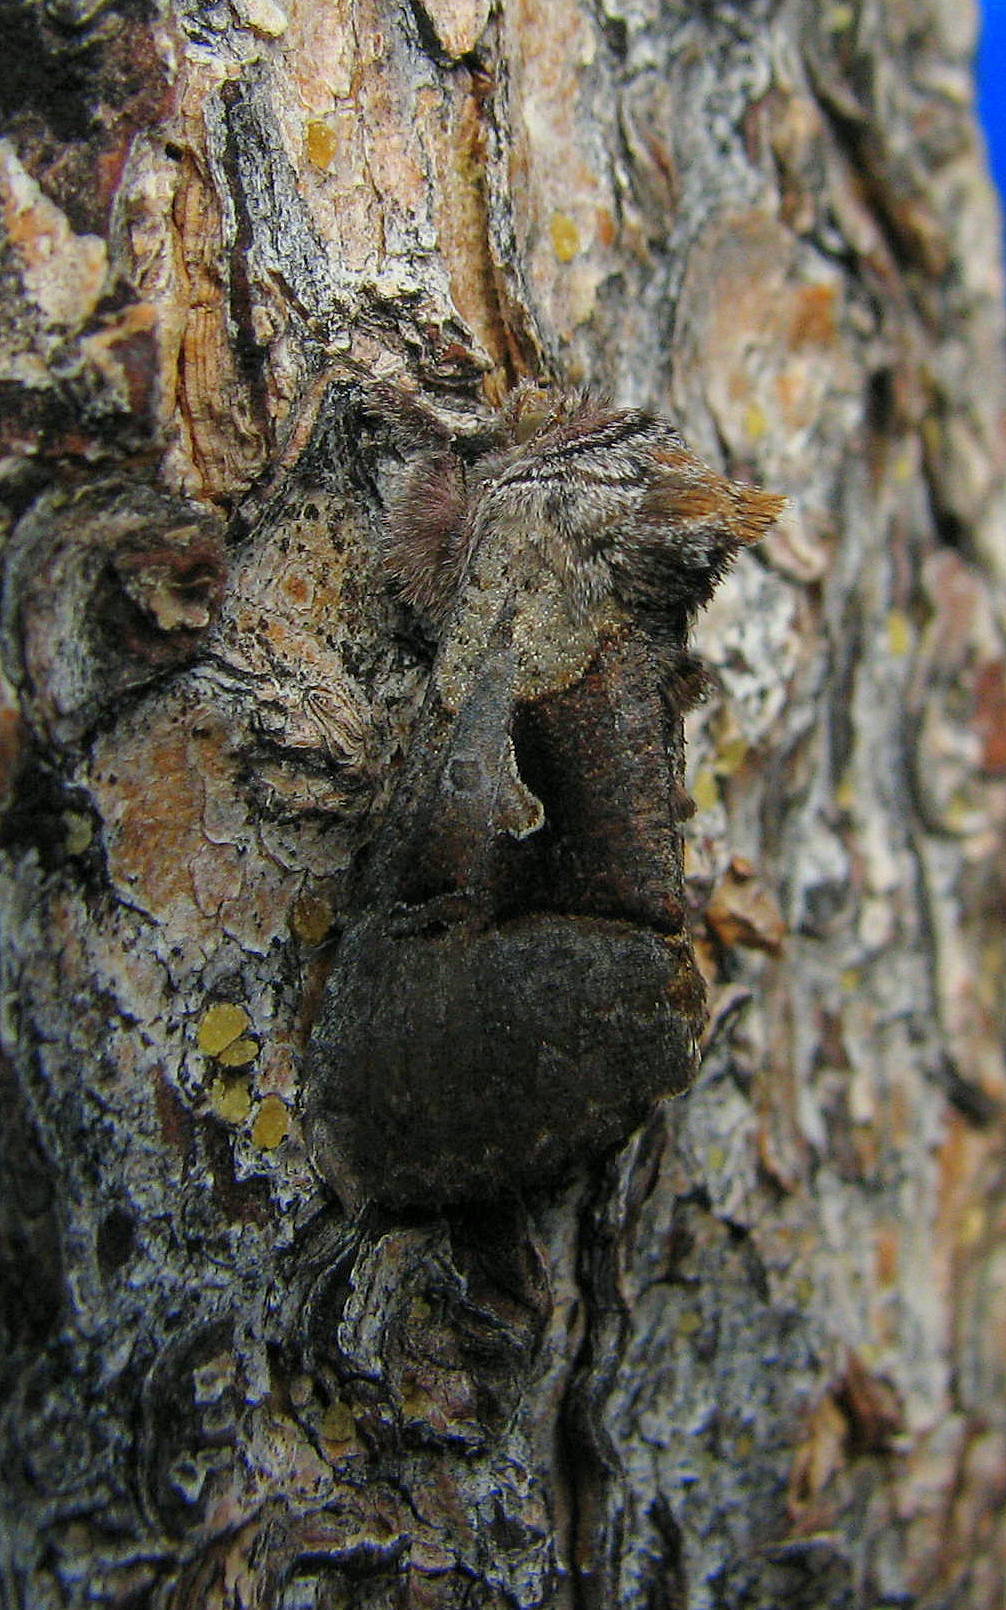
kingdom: Animalia
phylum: Arthropoda
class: Insecta
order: Lepidoptera
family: Noctuidae
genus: Syngrapha
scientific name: Syngrapha orophila
